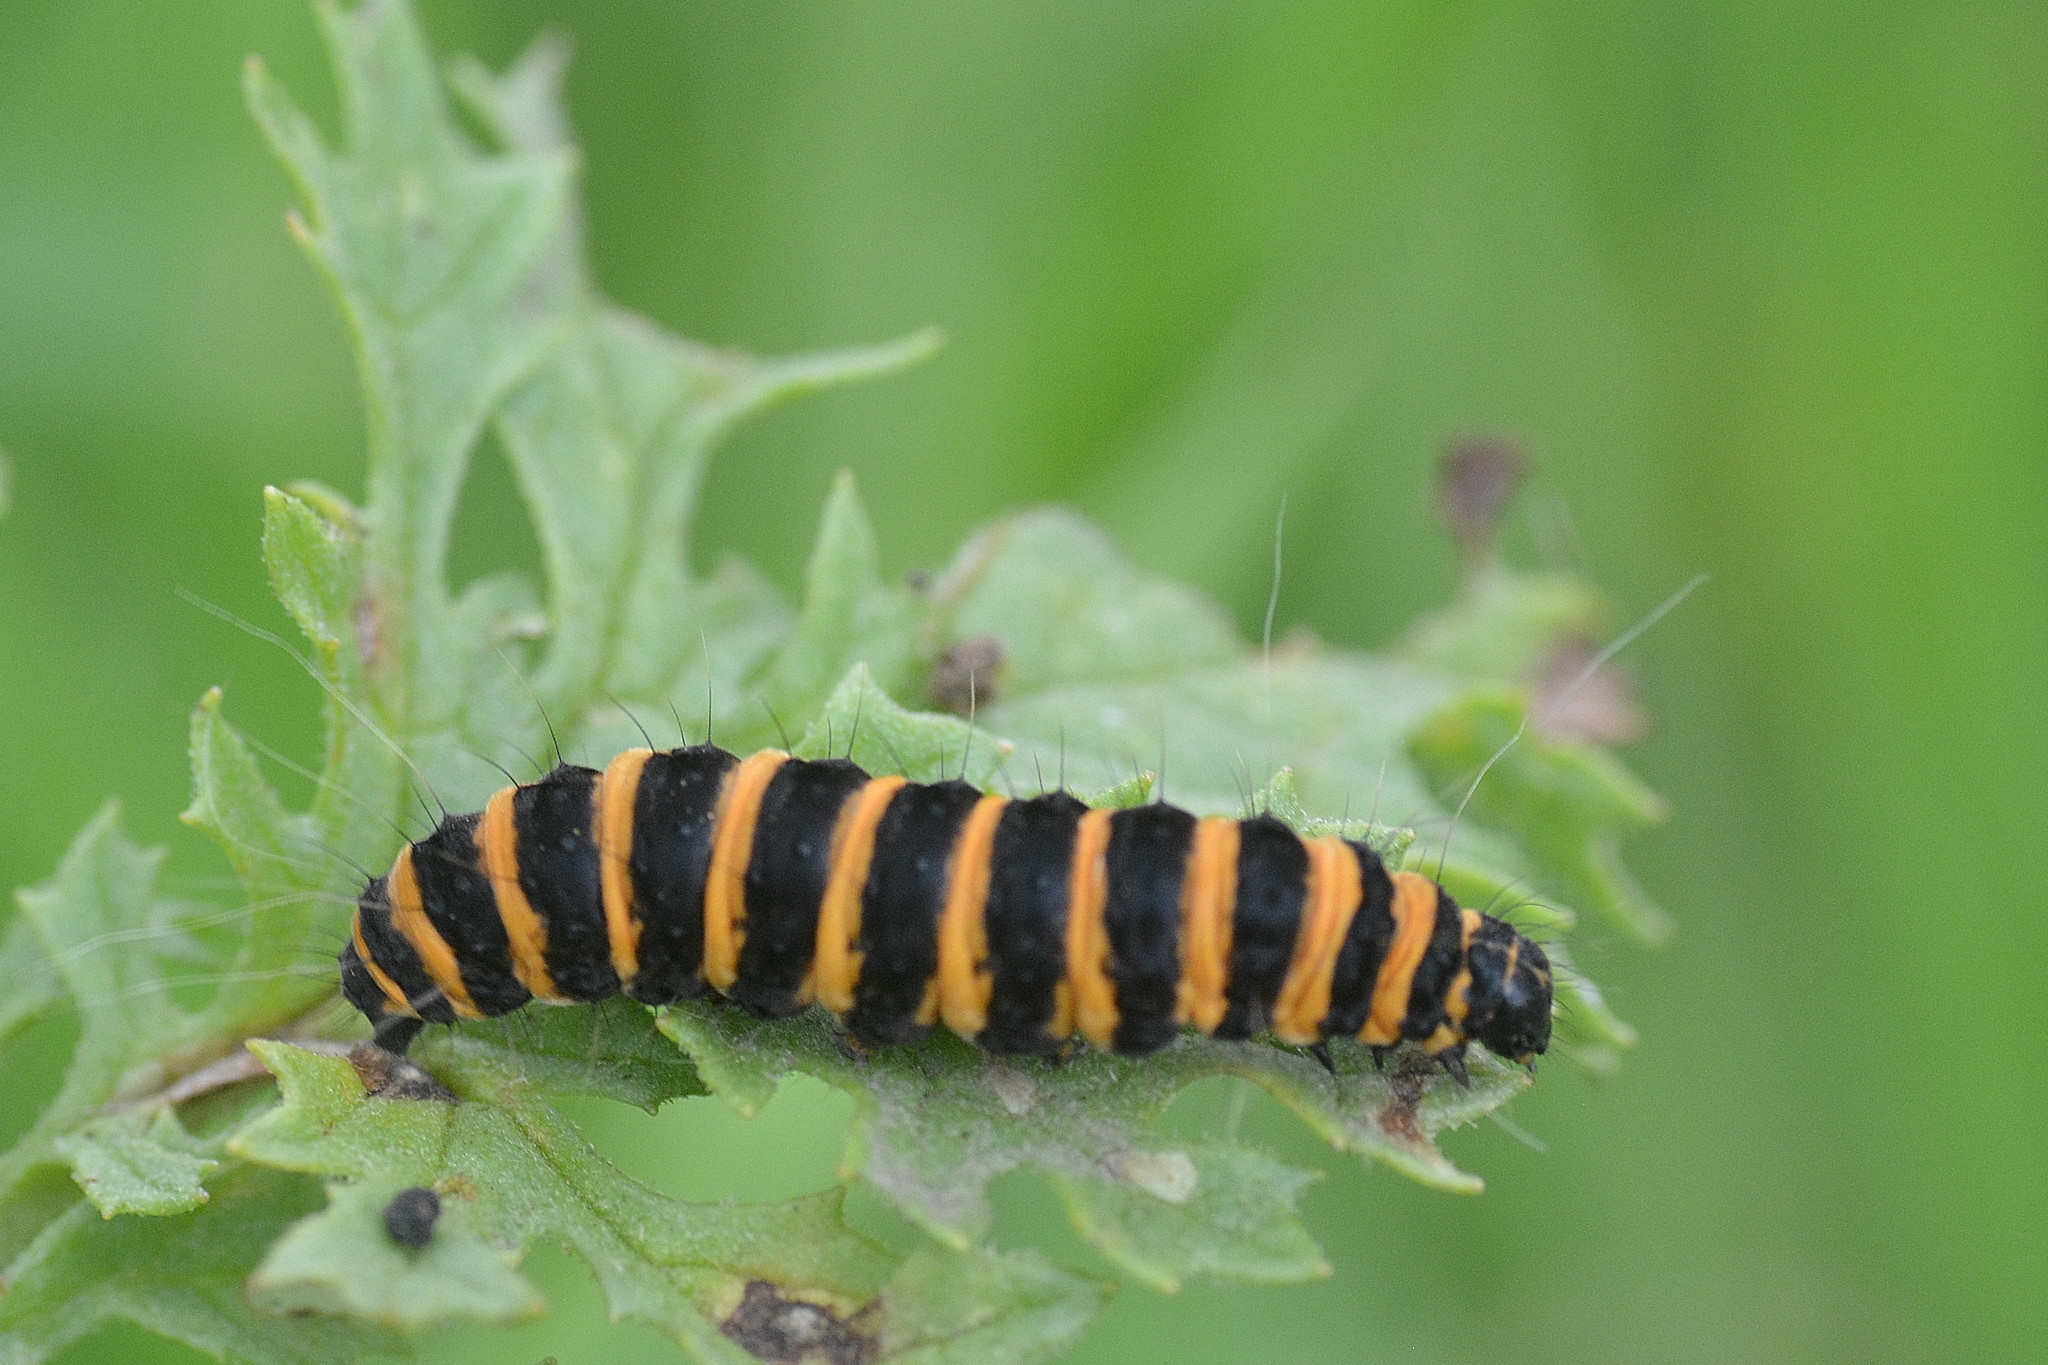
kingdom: Animalia
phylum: Arthropoda
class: Insecta
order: Lepidoptera
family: Erebidae
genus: Tyria
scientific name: Tyria jacobaeae
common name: Cinnabar
